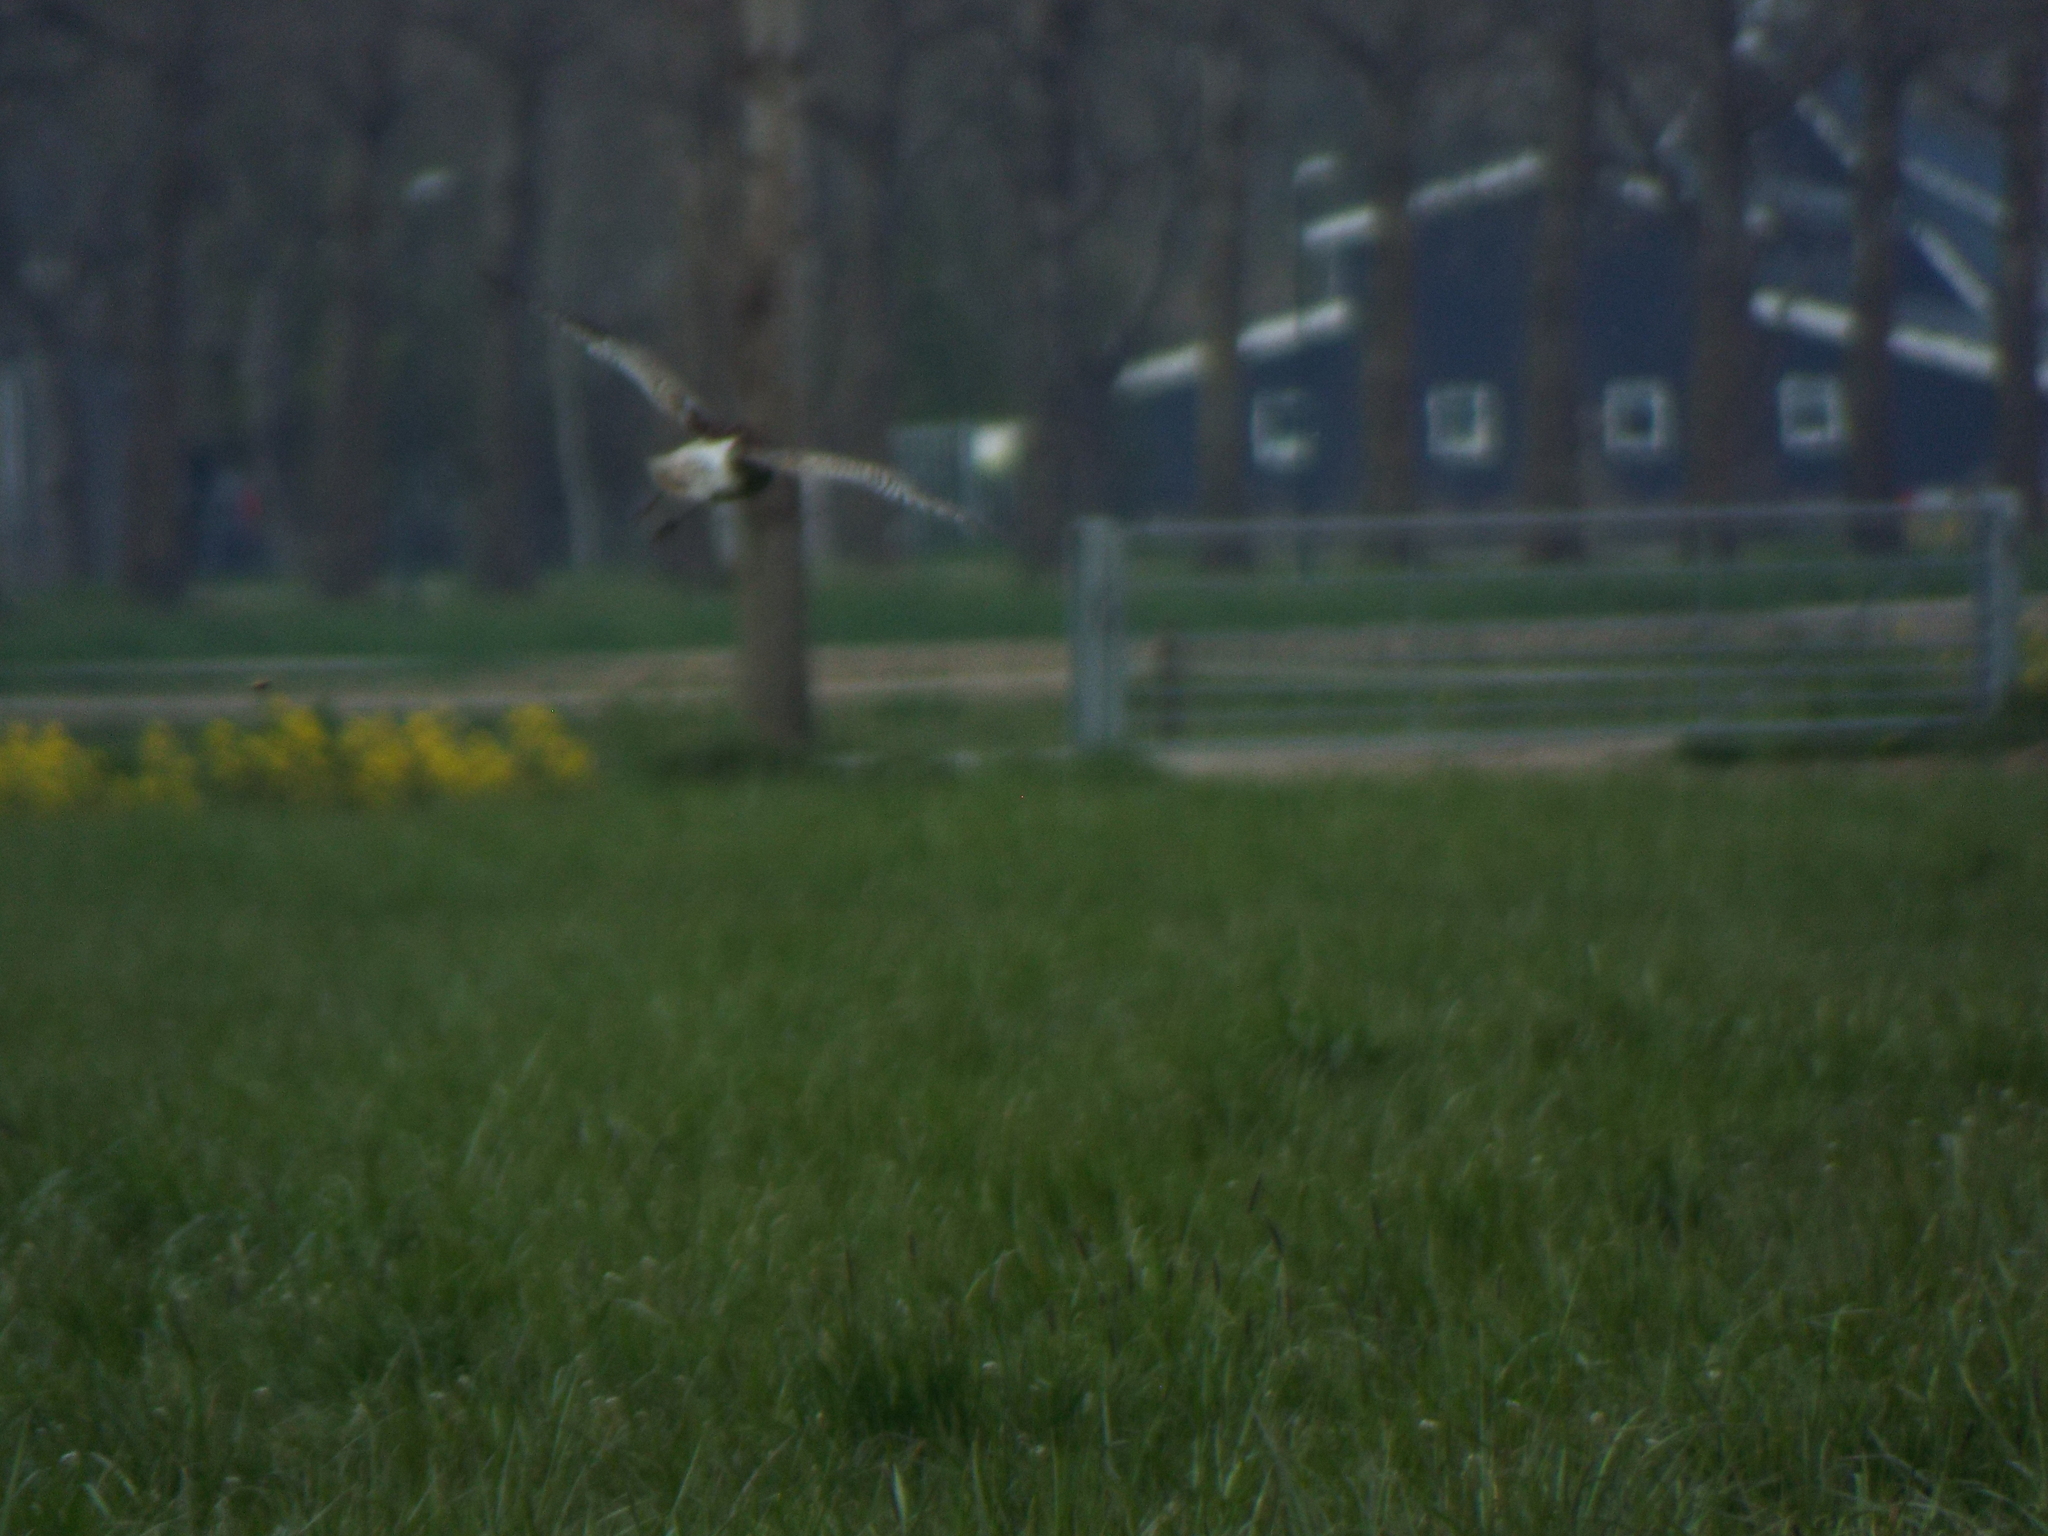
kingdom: Animalia
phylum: Chordata
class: Aves
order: Charadriiformes
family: Scolopacidae
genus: Numenius
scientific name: Numenius arquata
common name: Eurasian curlew
